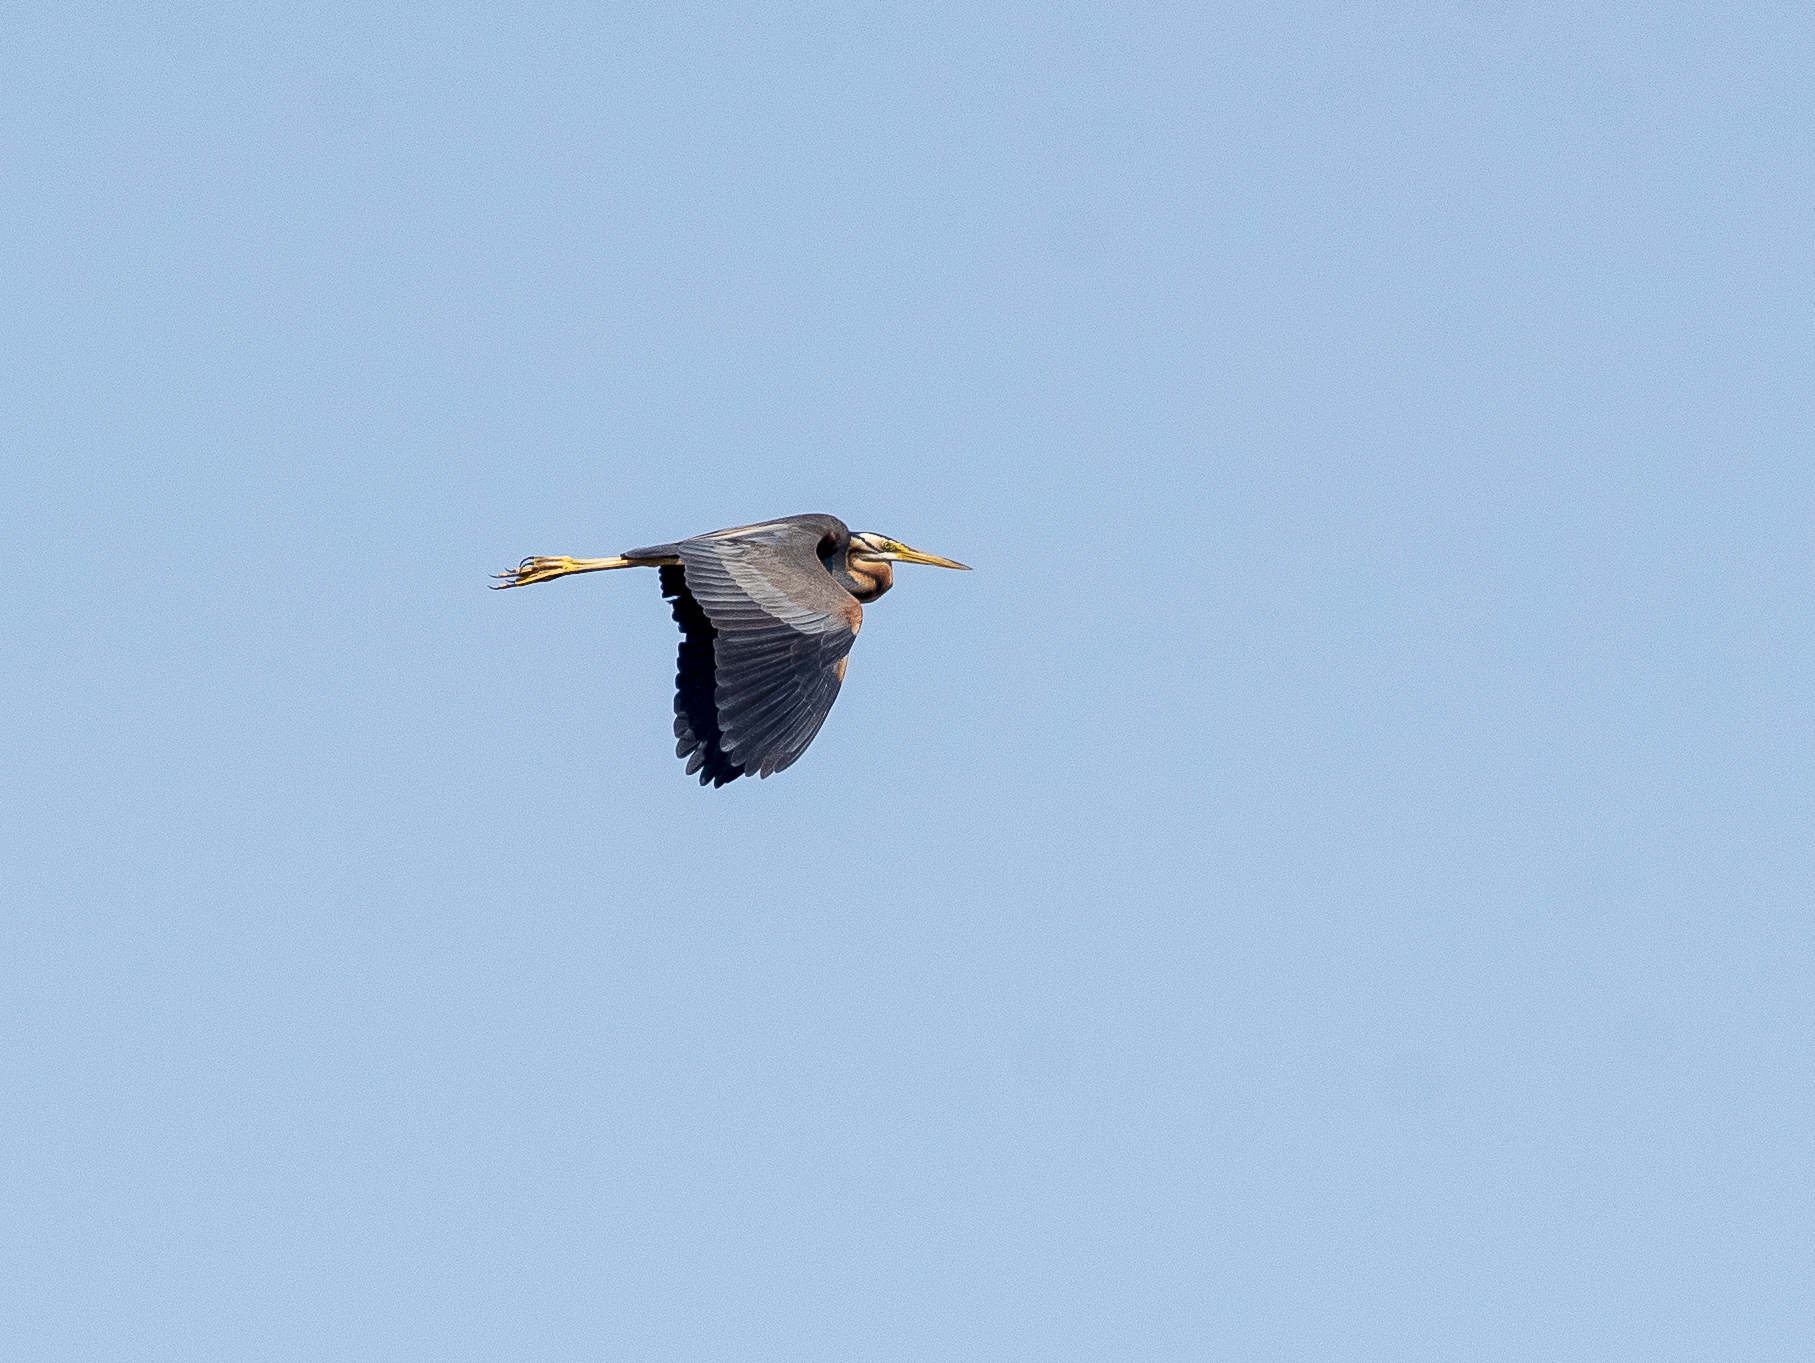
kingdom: Animalia
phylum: Chordata
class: Aves
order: Pelecaniformes
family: Ardeidae
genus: Ardea
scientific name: Ardea purpurea
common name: Purple heron
